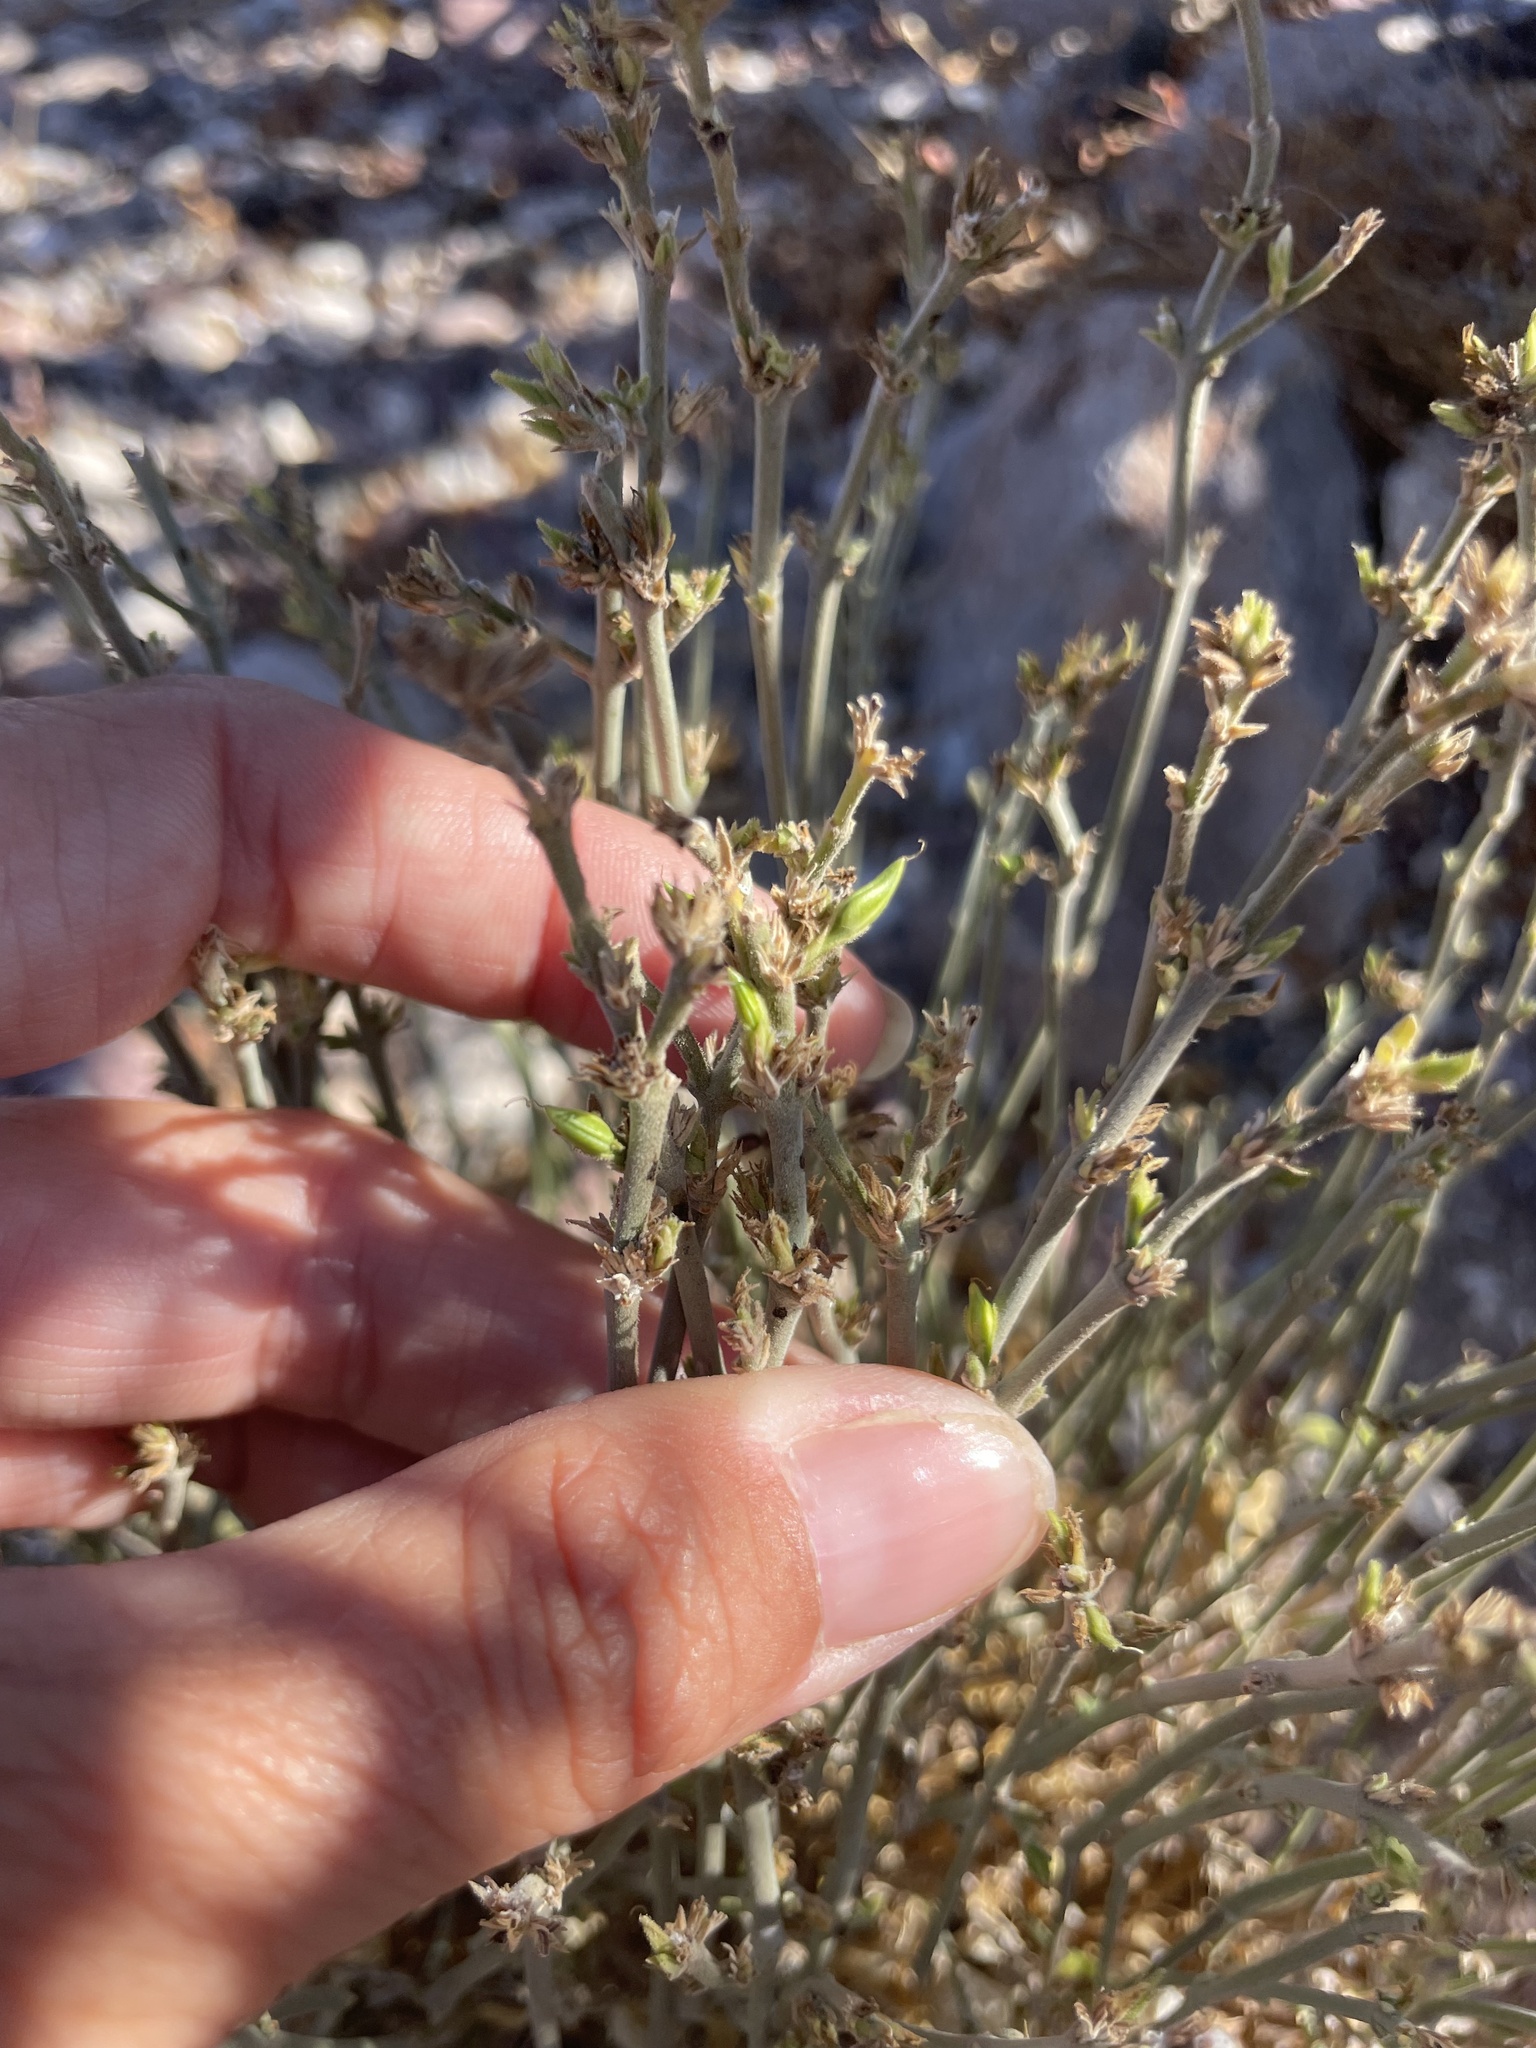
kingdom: Plantae
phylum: Tracheophyta
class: Magnoliopsida
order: Lamiales
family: Acanthaceae
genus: Carlowrightia
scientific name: Carlowrightia arizonica
